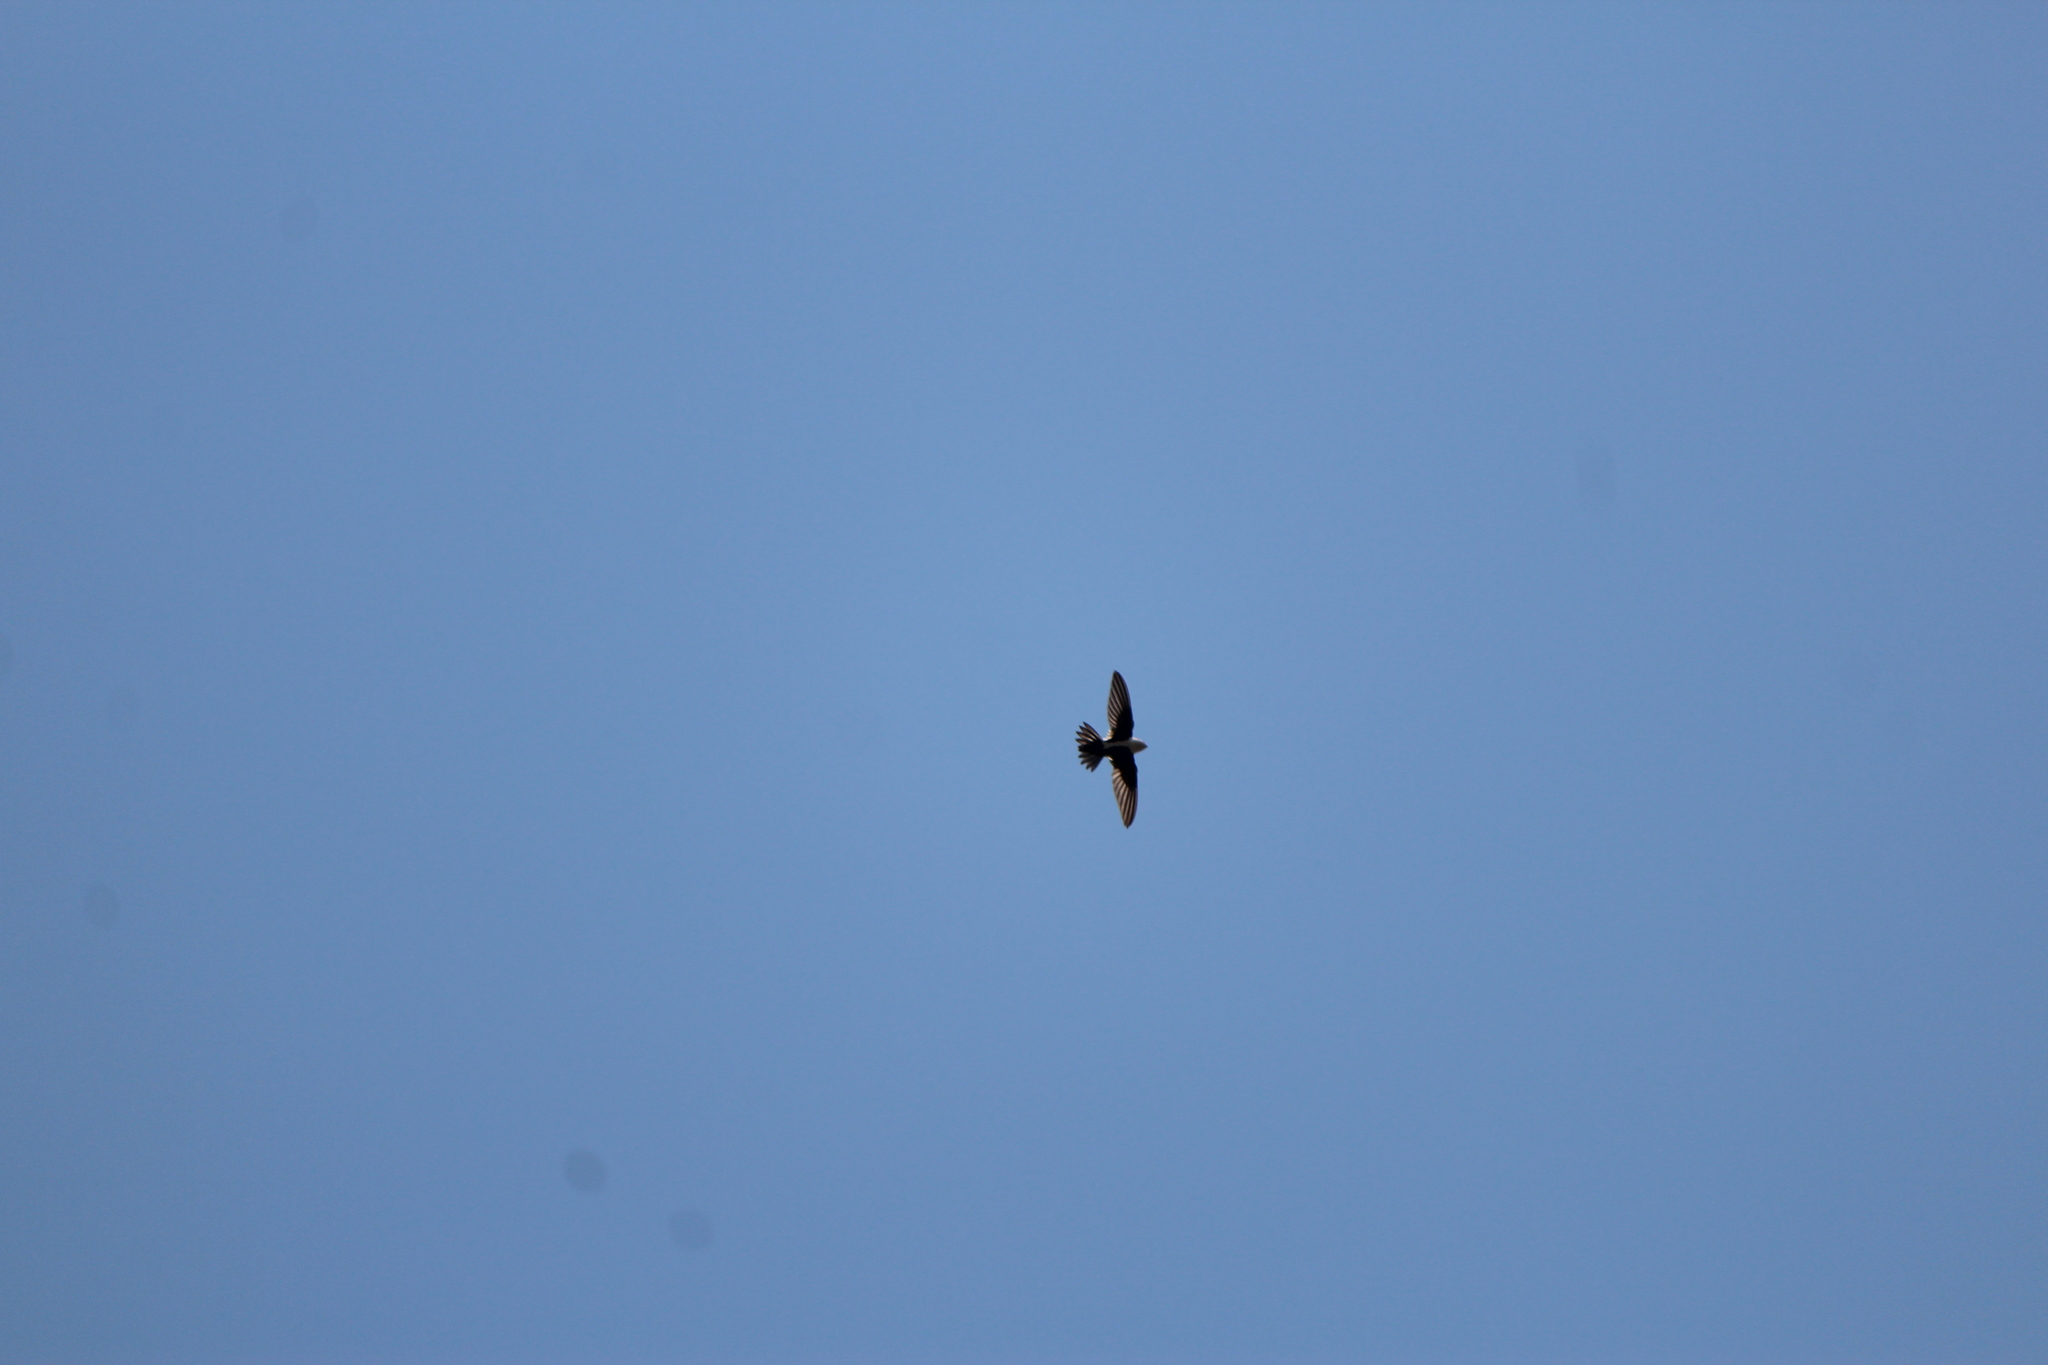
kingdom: Animalia
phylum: Chordata
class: Aves
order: Apodiformes
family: Apodidae
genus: Aeronautes
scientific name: Aeronautes saxatalis
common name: White-throated swift
